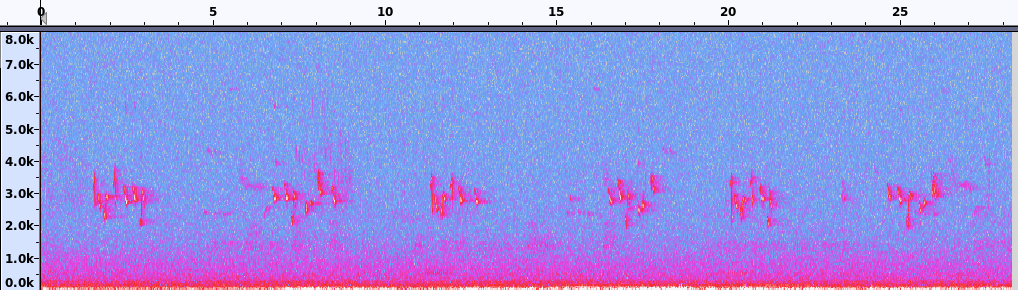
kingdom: Animalia
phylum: Chordata
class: Aves
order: Passeriformes
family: Icteridae
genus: Icterus
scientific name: Icterus galbula
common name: Baltimore oriole
